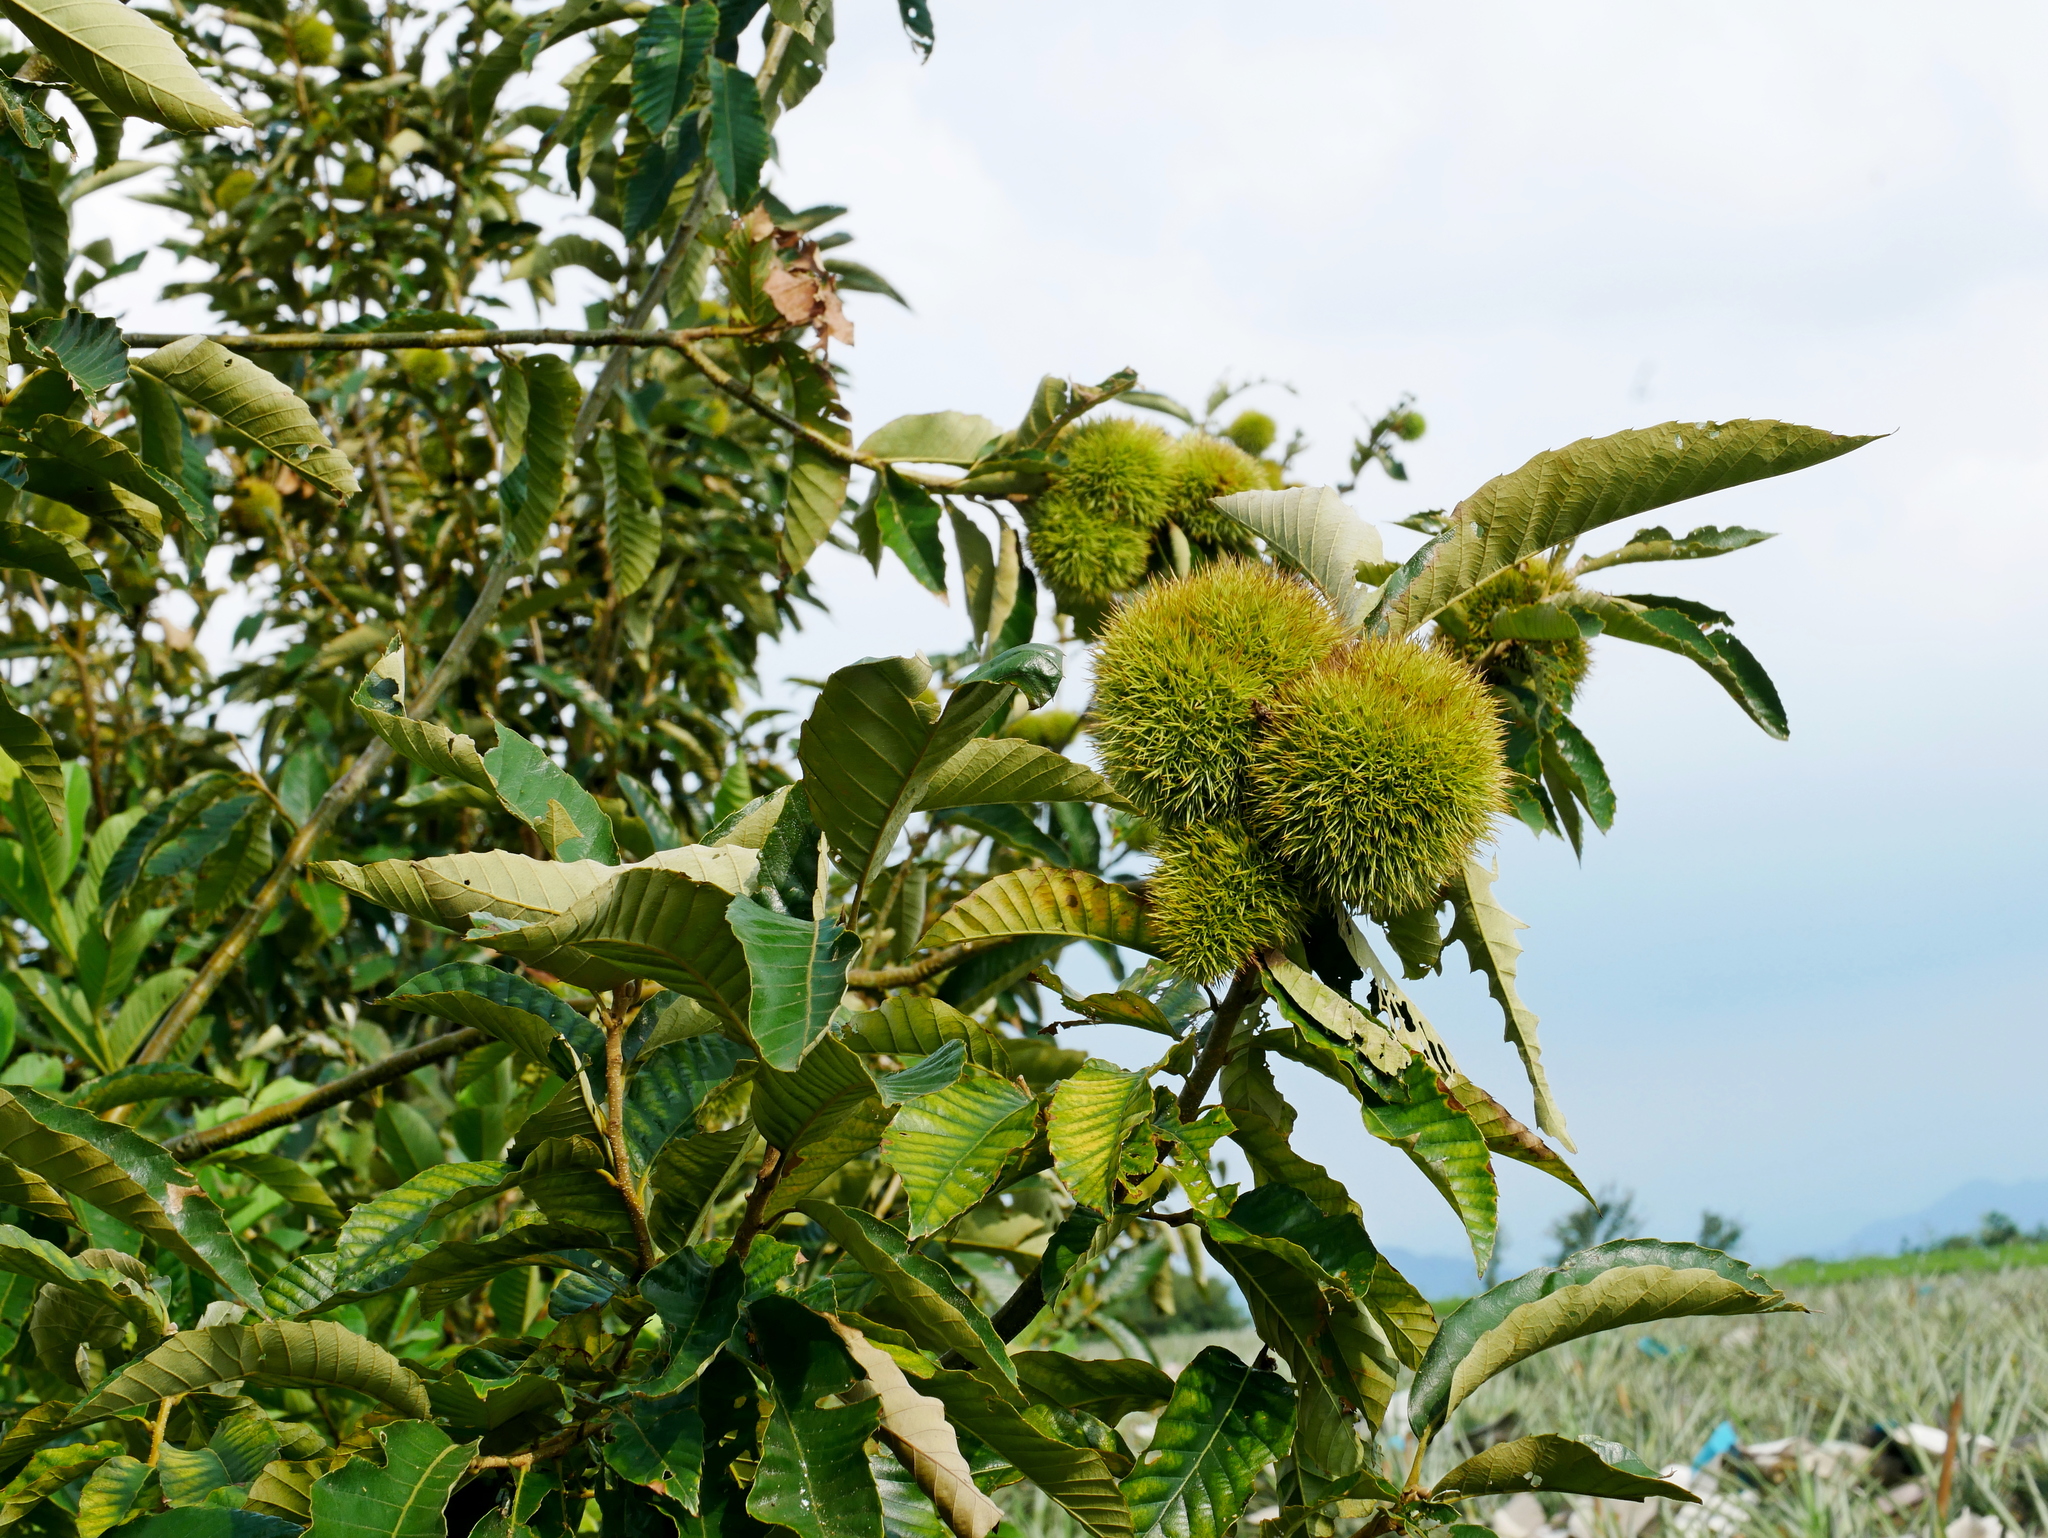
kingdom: Plantae
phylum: Tracheophyta
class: Magnoliopsida
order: Fagales
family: Fagaceae
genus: Castanea
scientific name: Castanea mollissima
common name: Chinese chestnut
